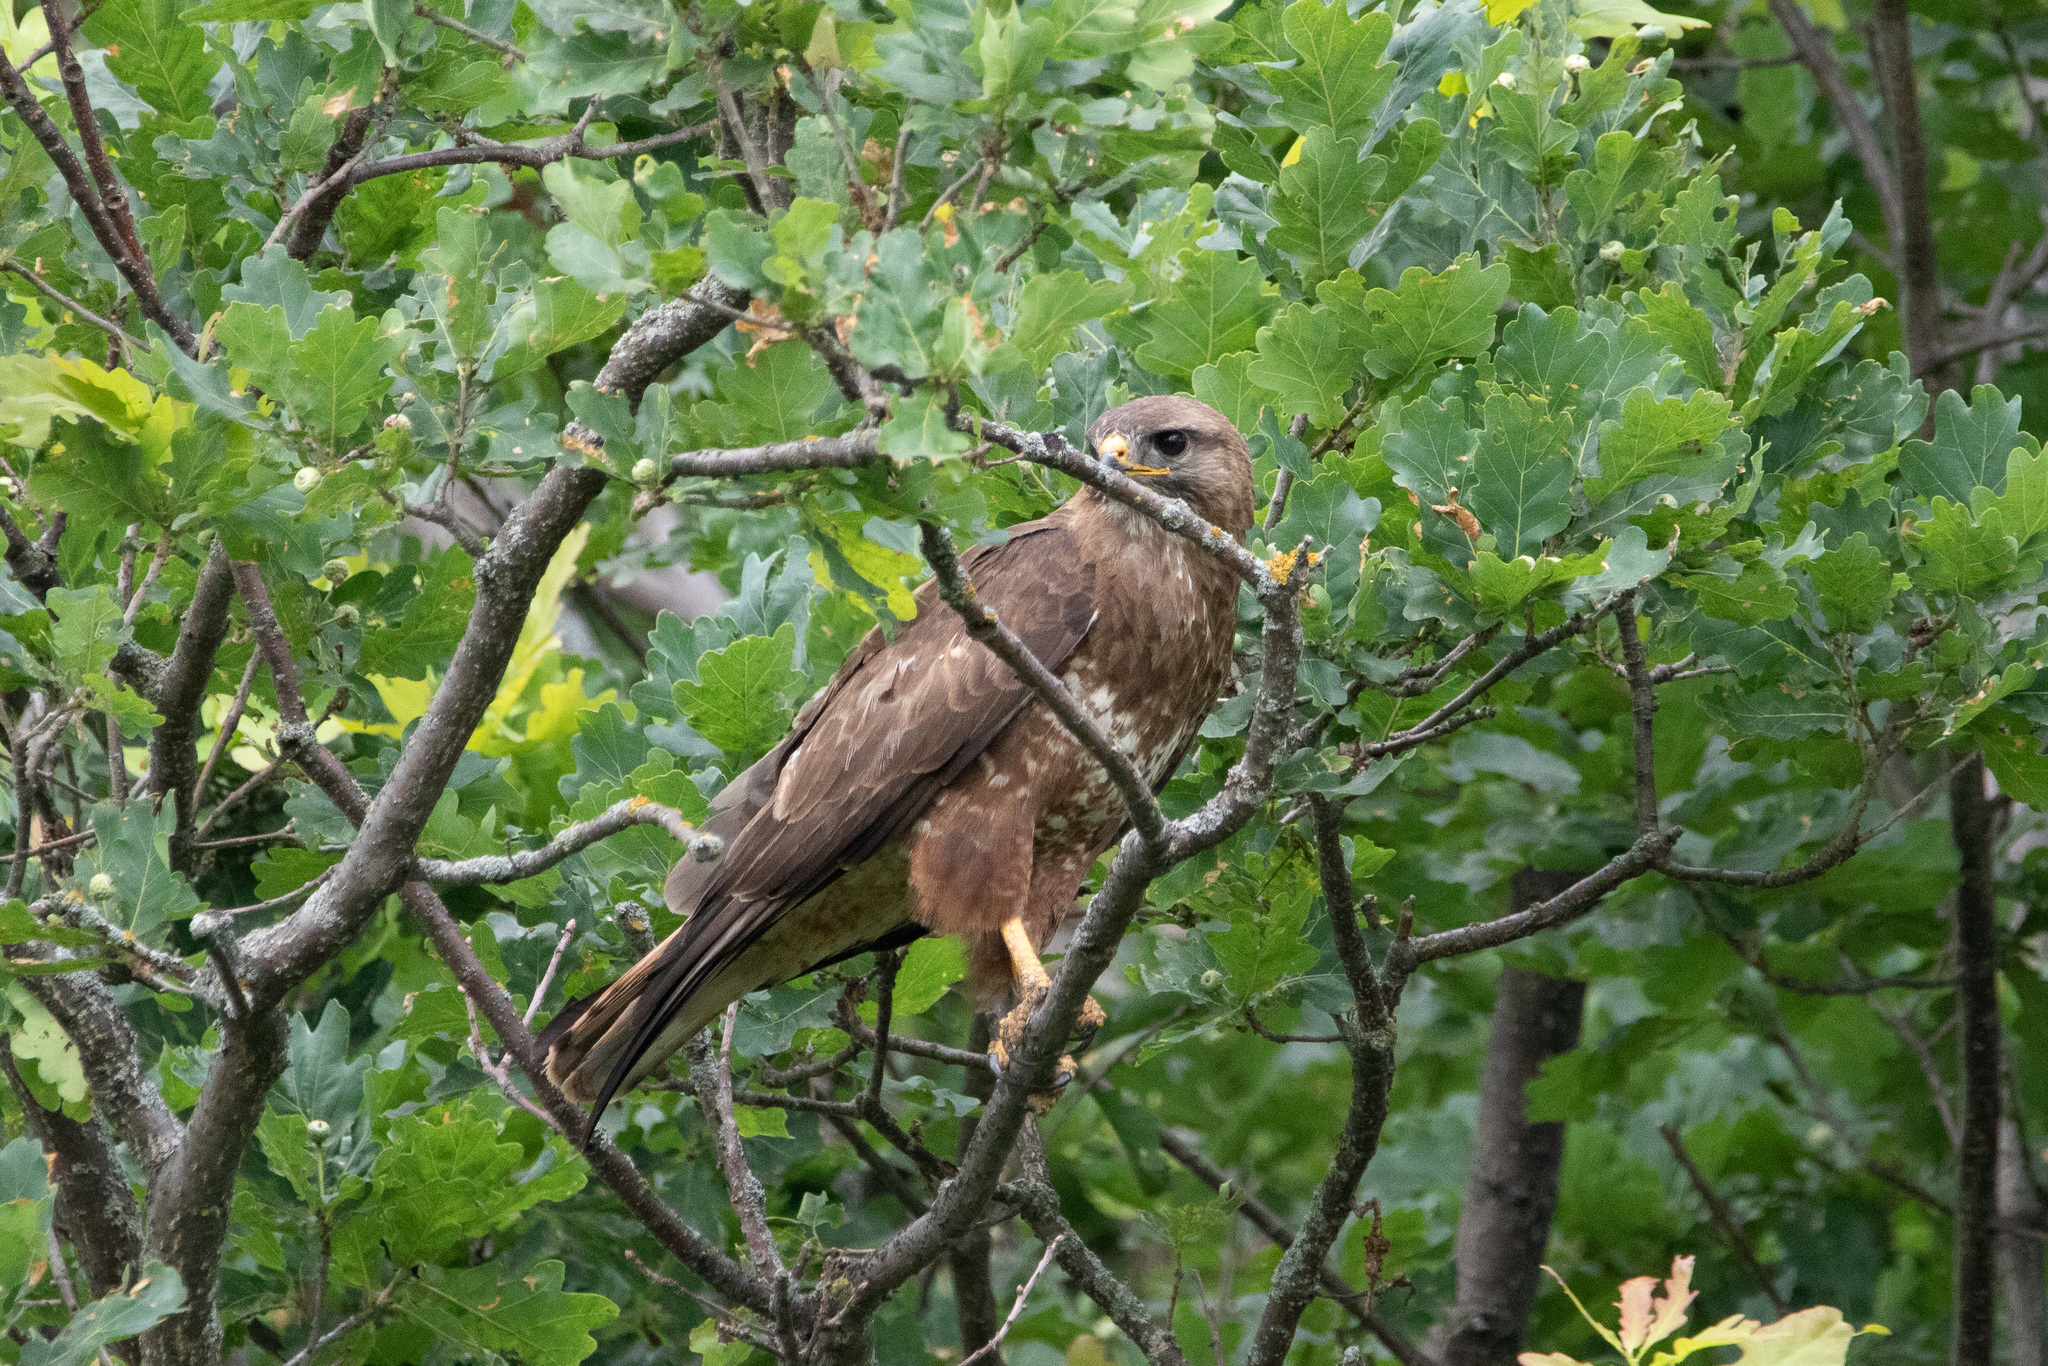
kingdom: Animalia
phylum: Chordata
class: Aves
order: Accipitriformes
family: Accipitridae
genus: Buteo
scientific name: Buteo buteo
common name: Common buzzard
